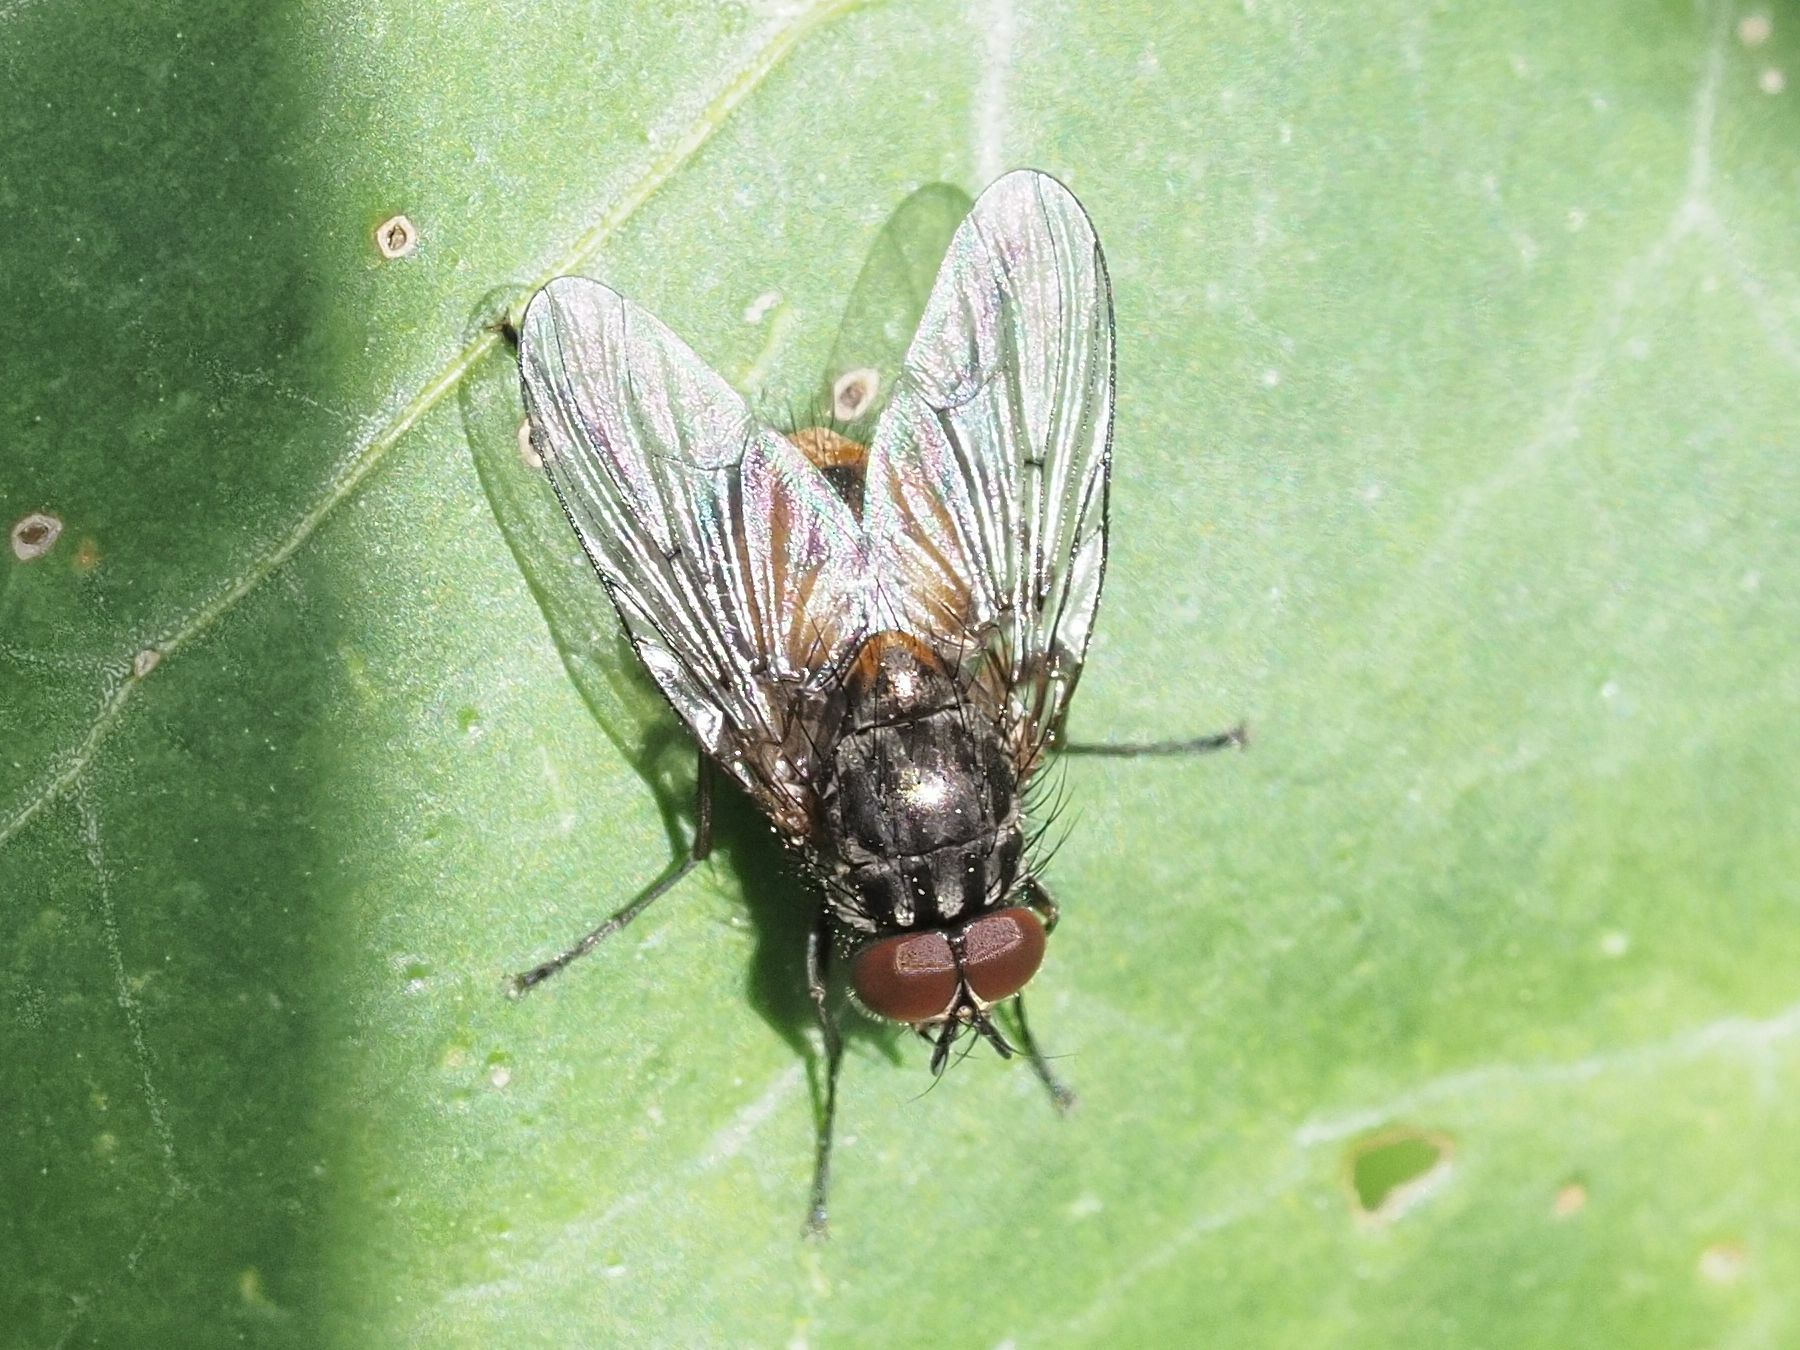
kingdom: Animalia
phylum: Arthropoda
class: Insecta
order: Diptera
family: Muscidae
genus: Phaonia
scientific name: Phaonia subventa
